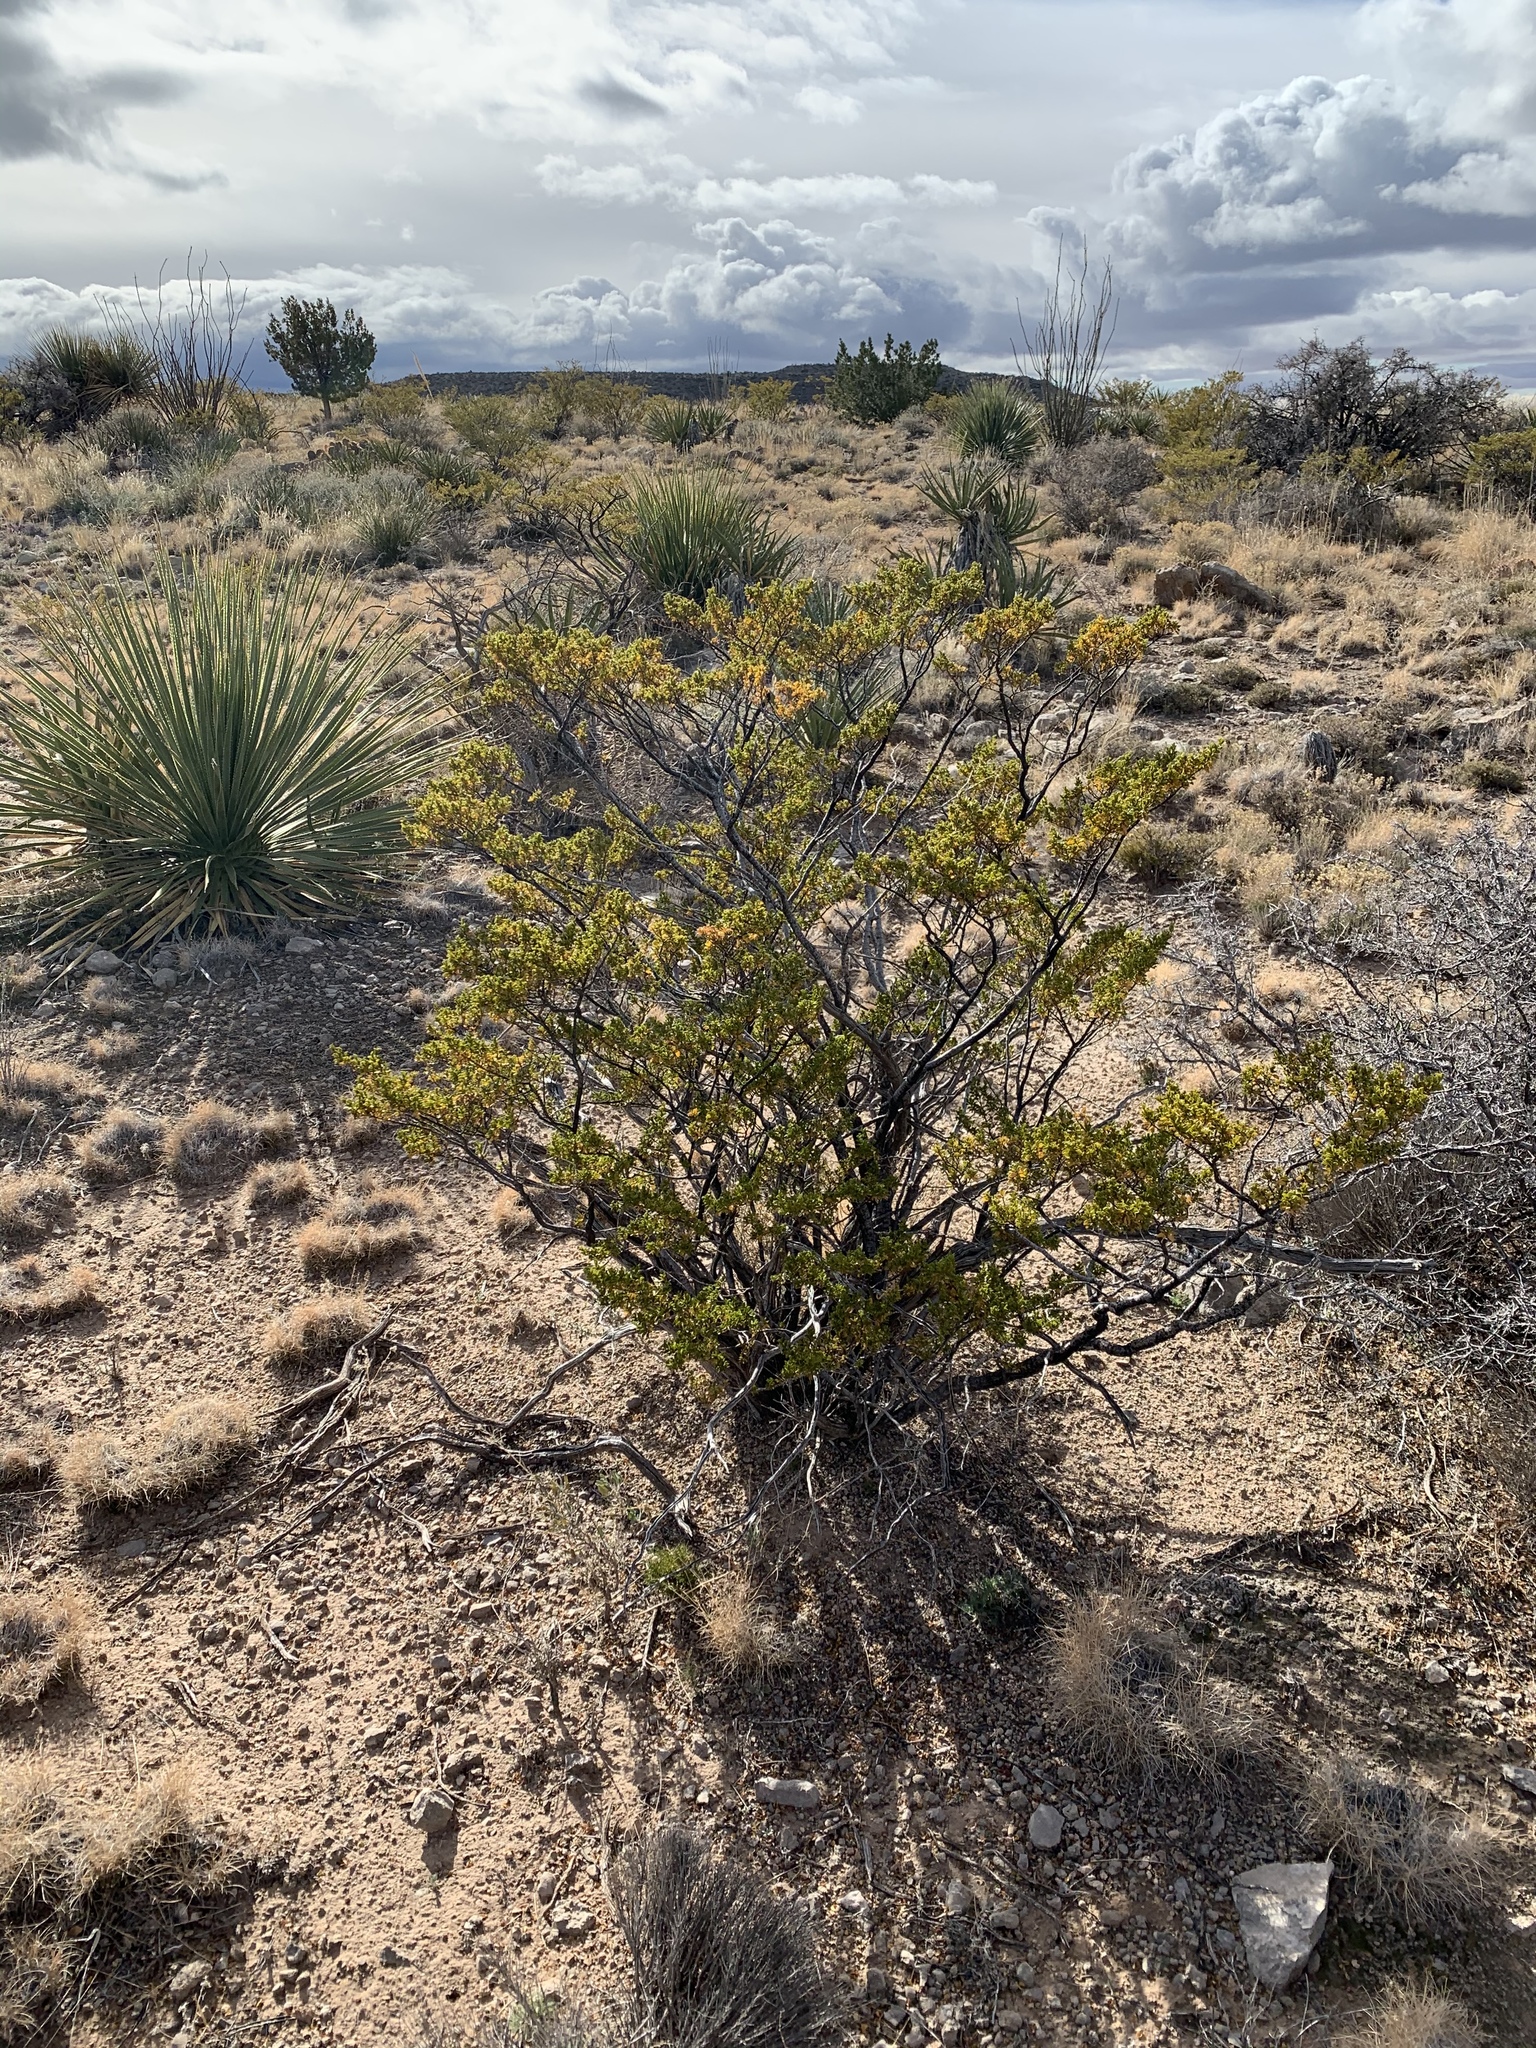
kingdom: Plantae
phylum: Tracheophyta
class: Magnoliopsida
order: Zygophyllales
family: Zygophyllaceae
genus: Larrea
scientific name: Larrea tridentata
